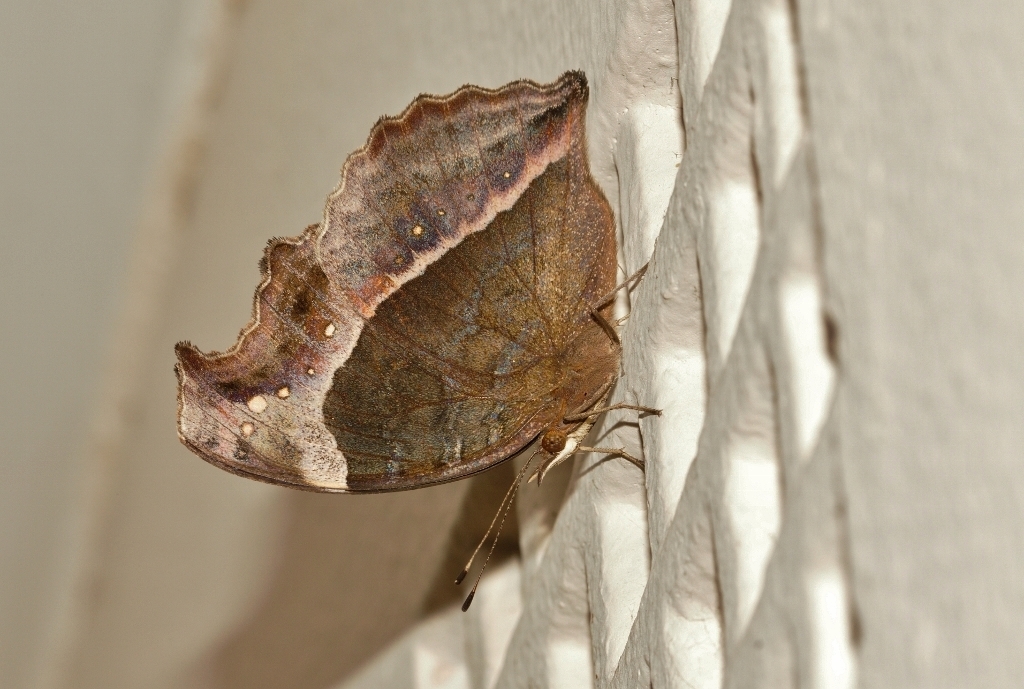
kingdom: Animalia
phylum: Arthropoda
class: Insecta
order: Lepidoptera
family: Nymphalidae
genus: Junonia
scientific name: Junonia archesia
